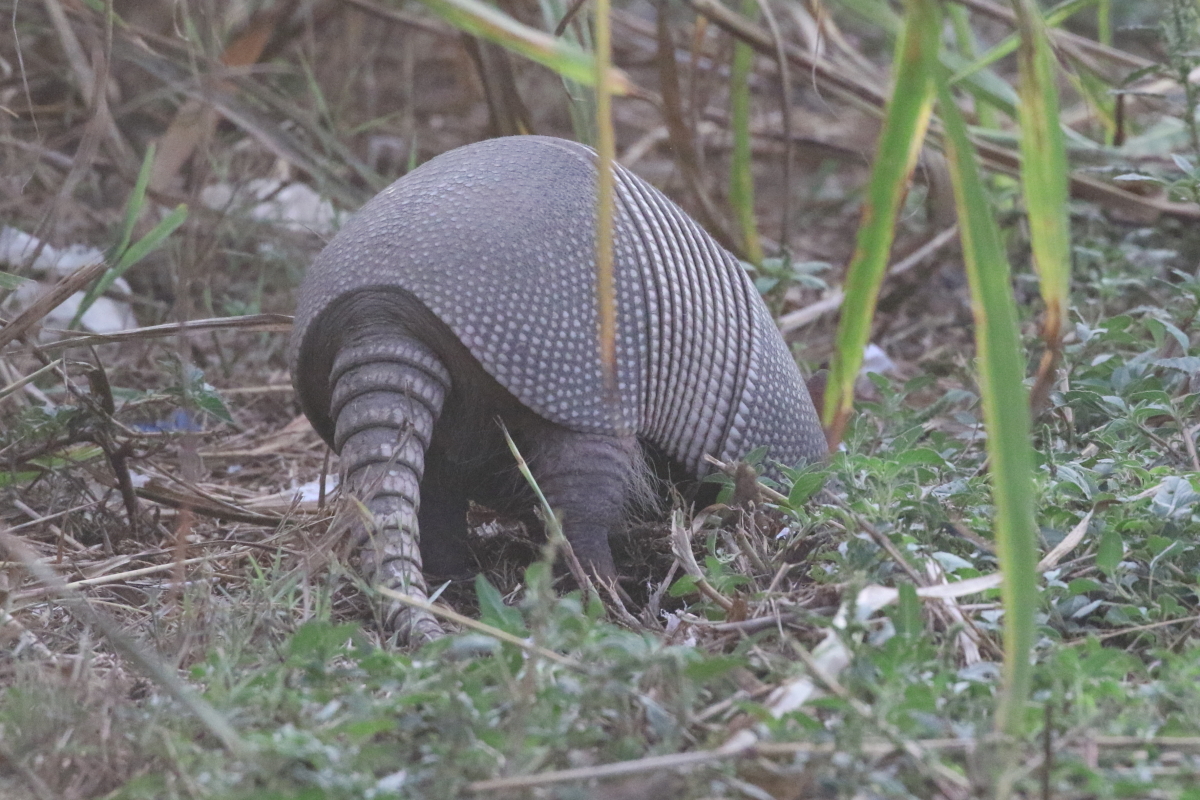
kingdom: Animalia
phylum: Chordata
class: Mammalia
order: Cingulata
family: Dasypodidae
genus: Dasypus
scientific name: Dasypus novemcinctus
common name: Nine-banded armadillo
